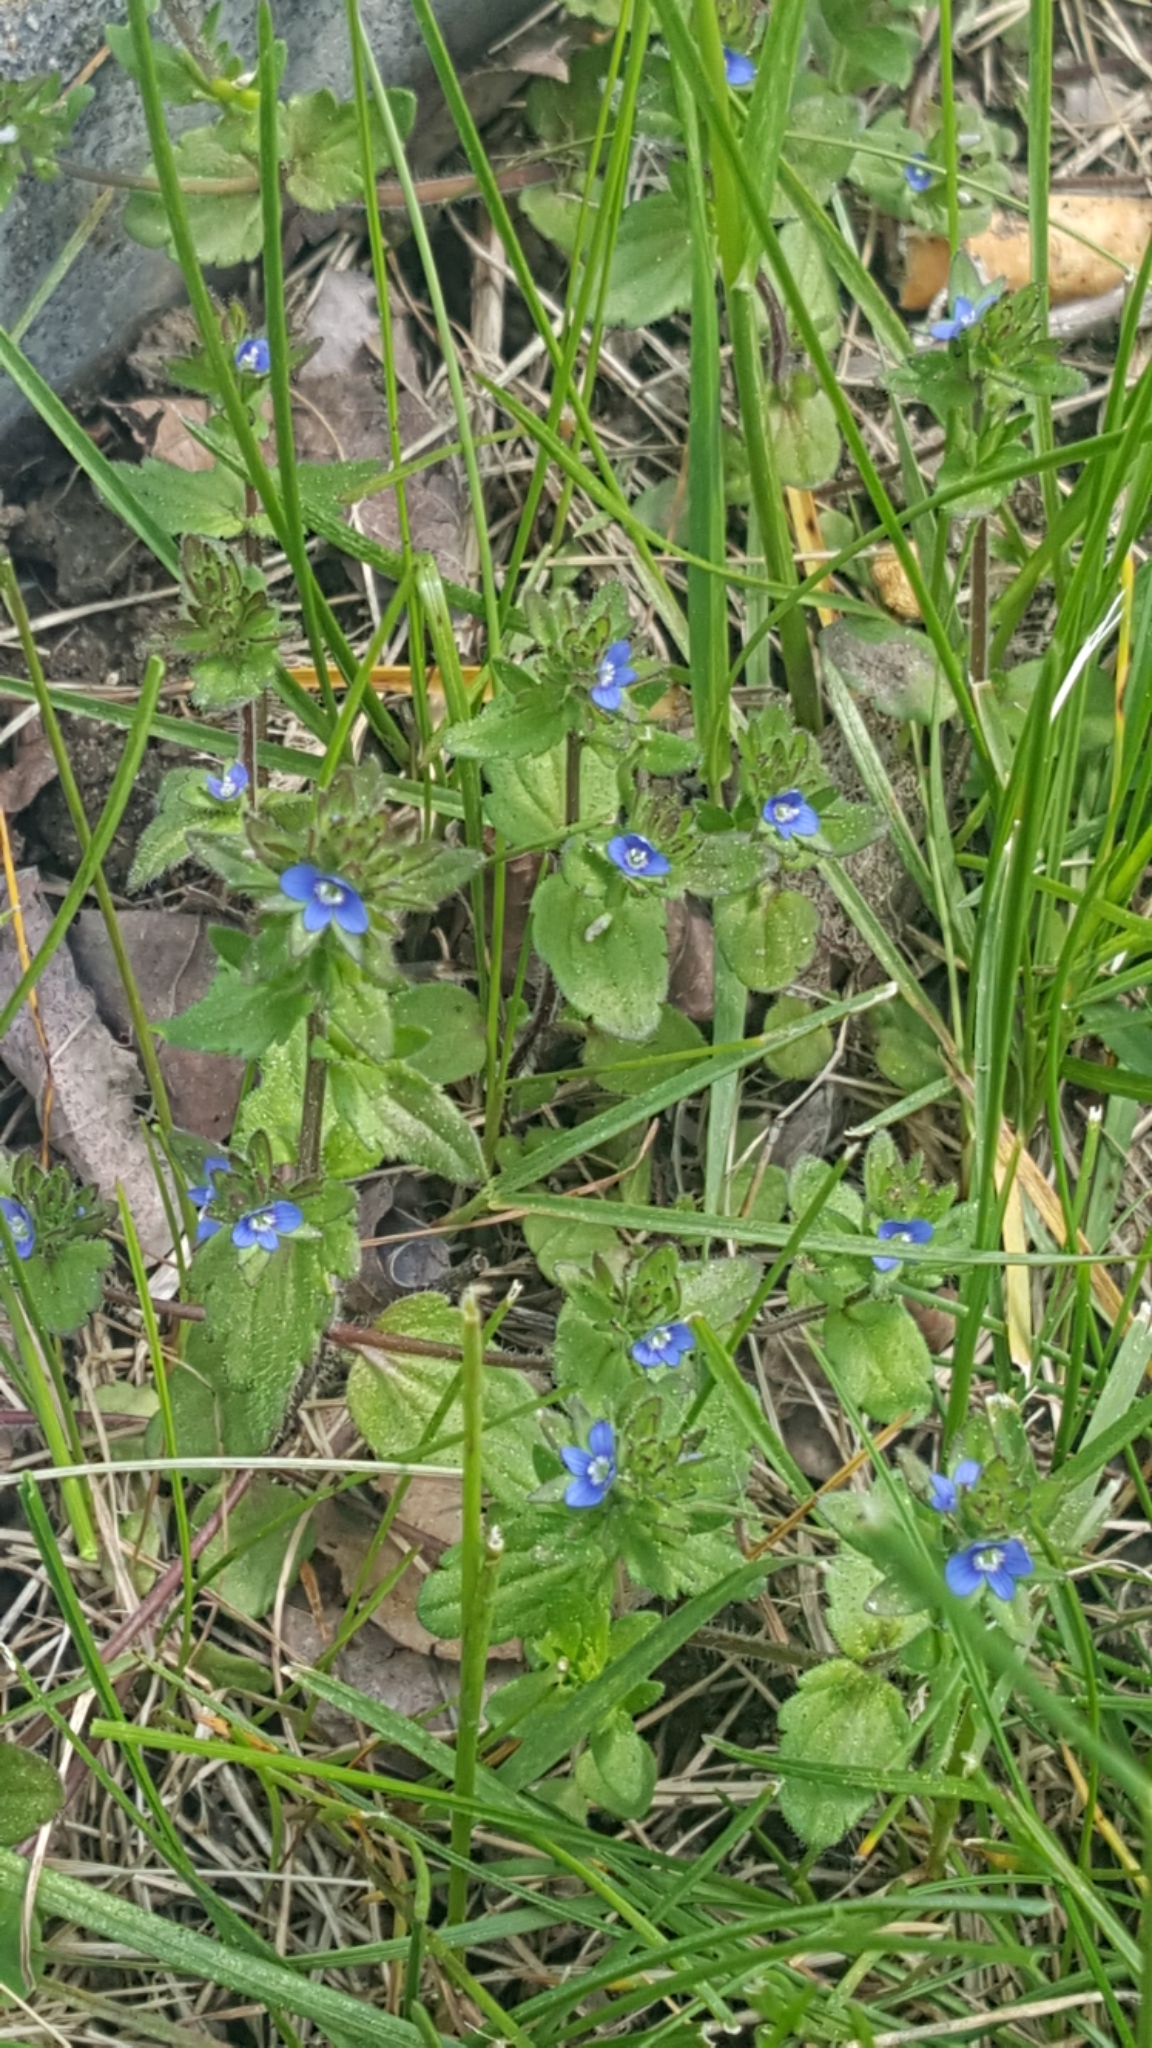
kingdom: Plantae
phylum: Tracheophyta
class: Magnoliopsida
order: Lamiales
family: Plantaginaceae
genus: Veronica
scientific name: Veronica arvensis
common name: Corn speedwell
